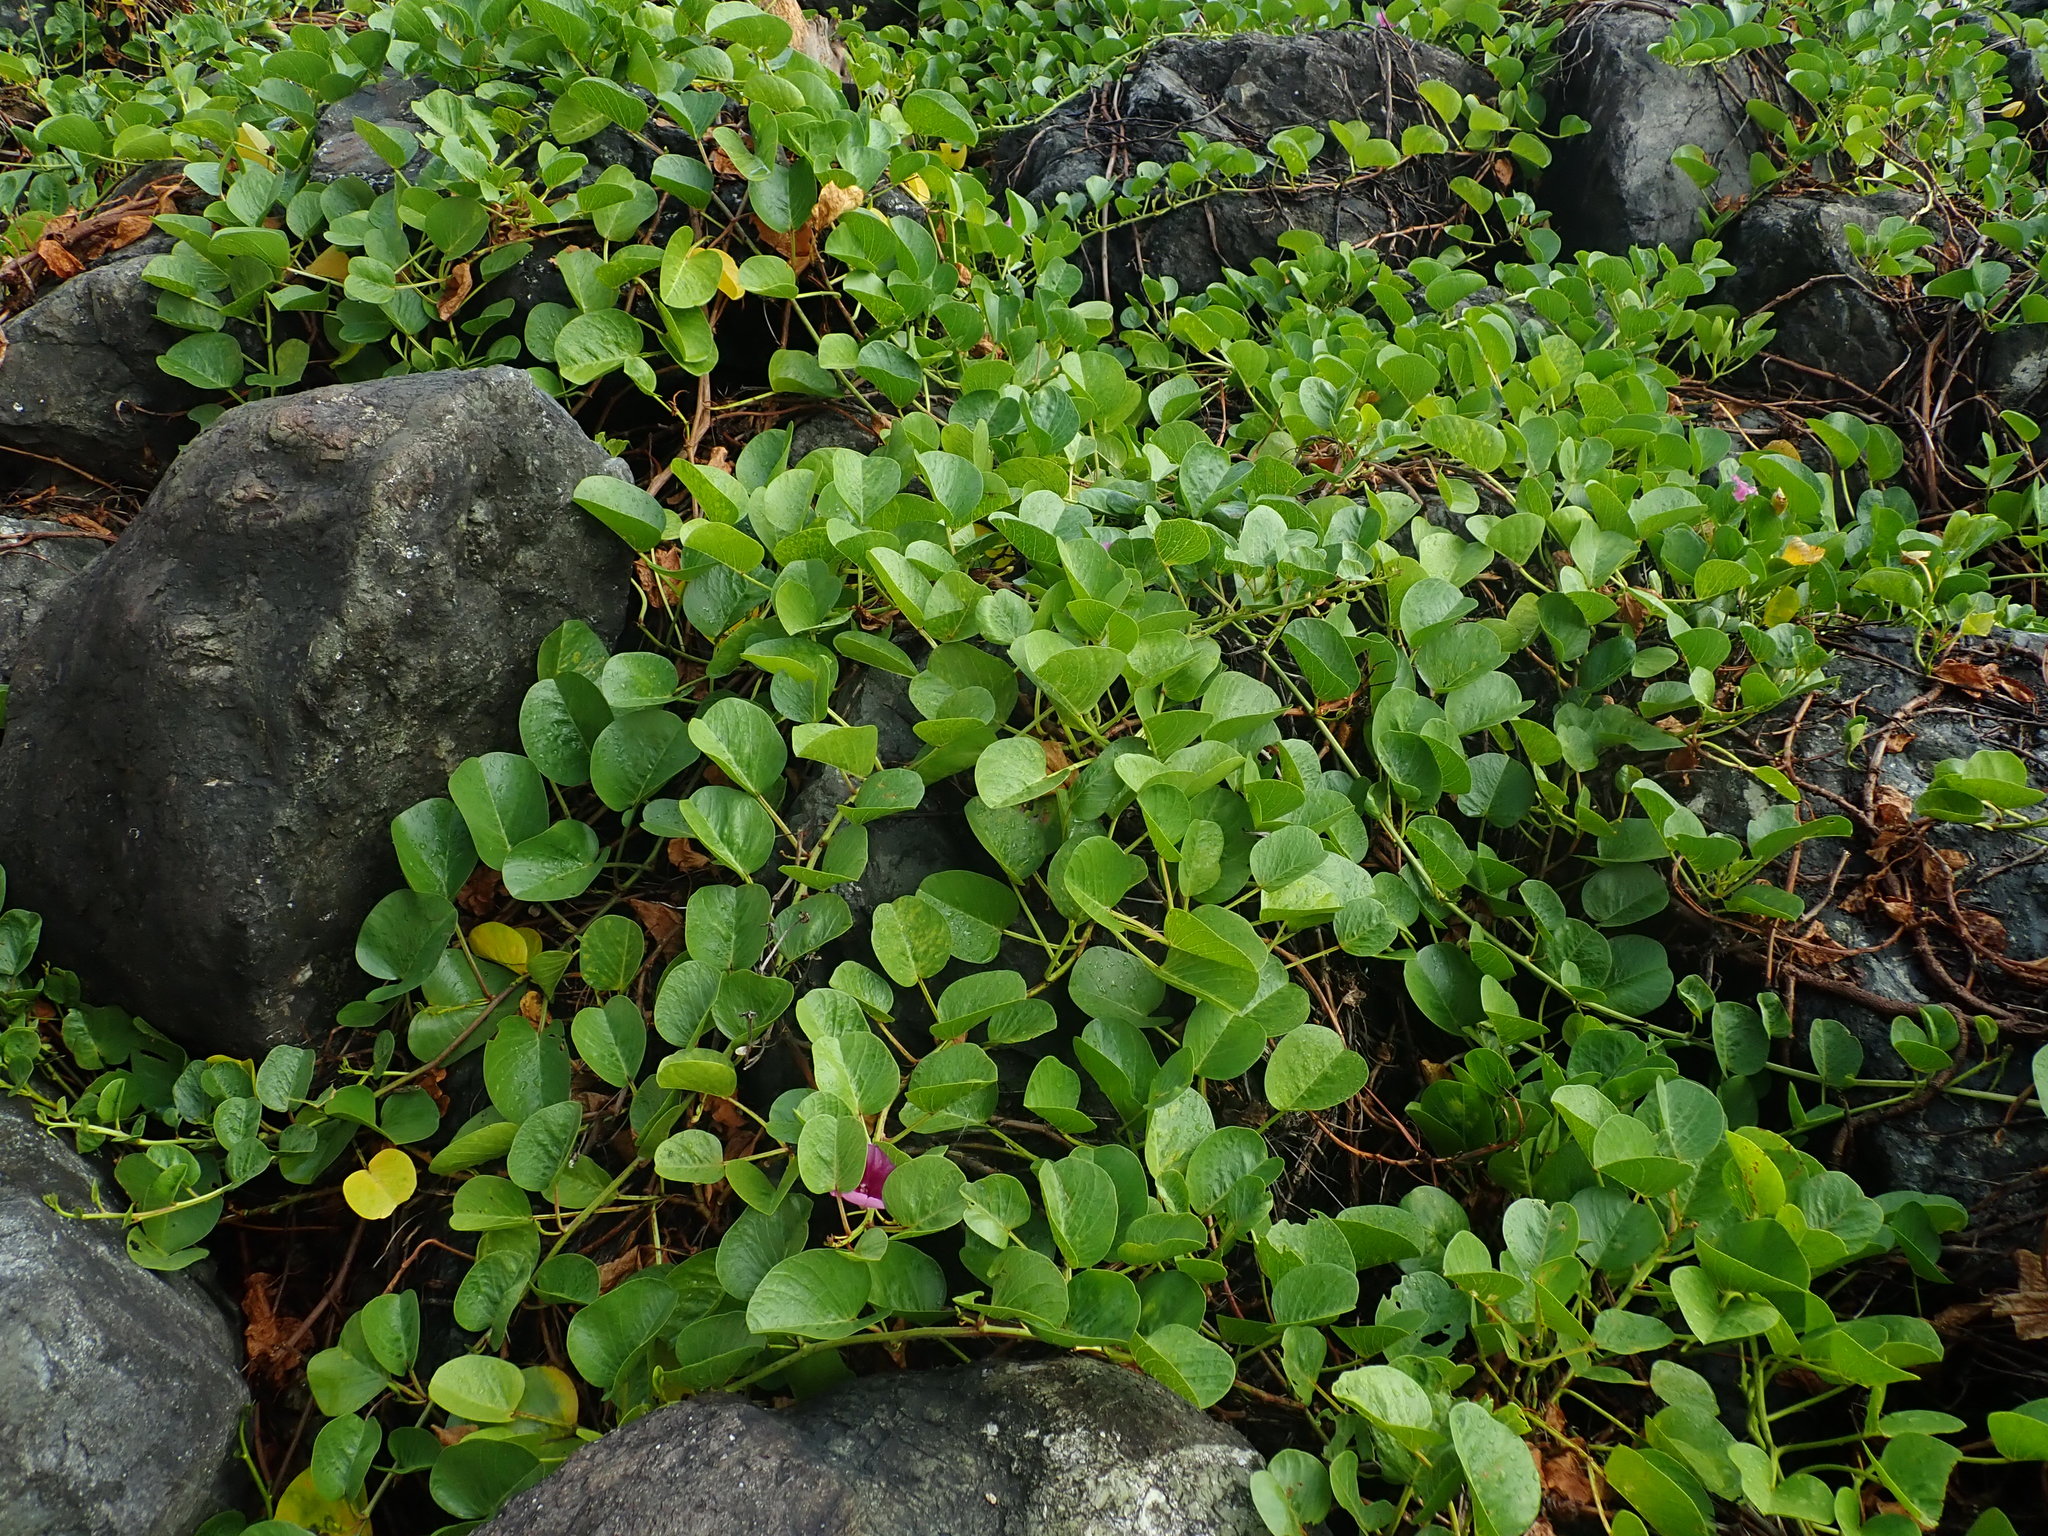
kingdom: Plantae
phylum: Tracheophyta
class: Magnoliopsida
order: Solanales
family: Convolvulaceae
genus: Ipomoea
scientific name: Ipomoea pes-caprae
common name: Beach morning glory
